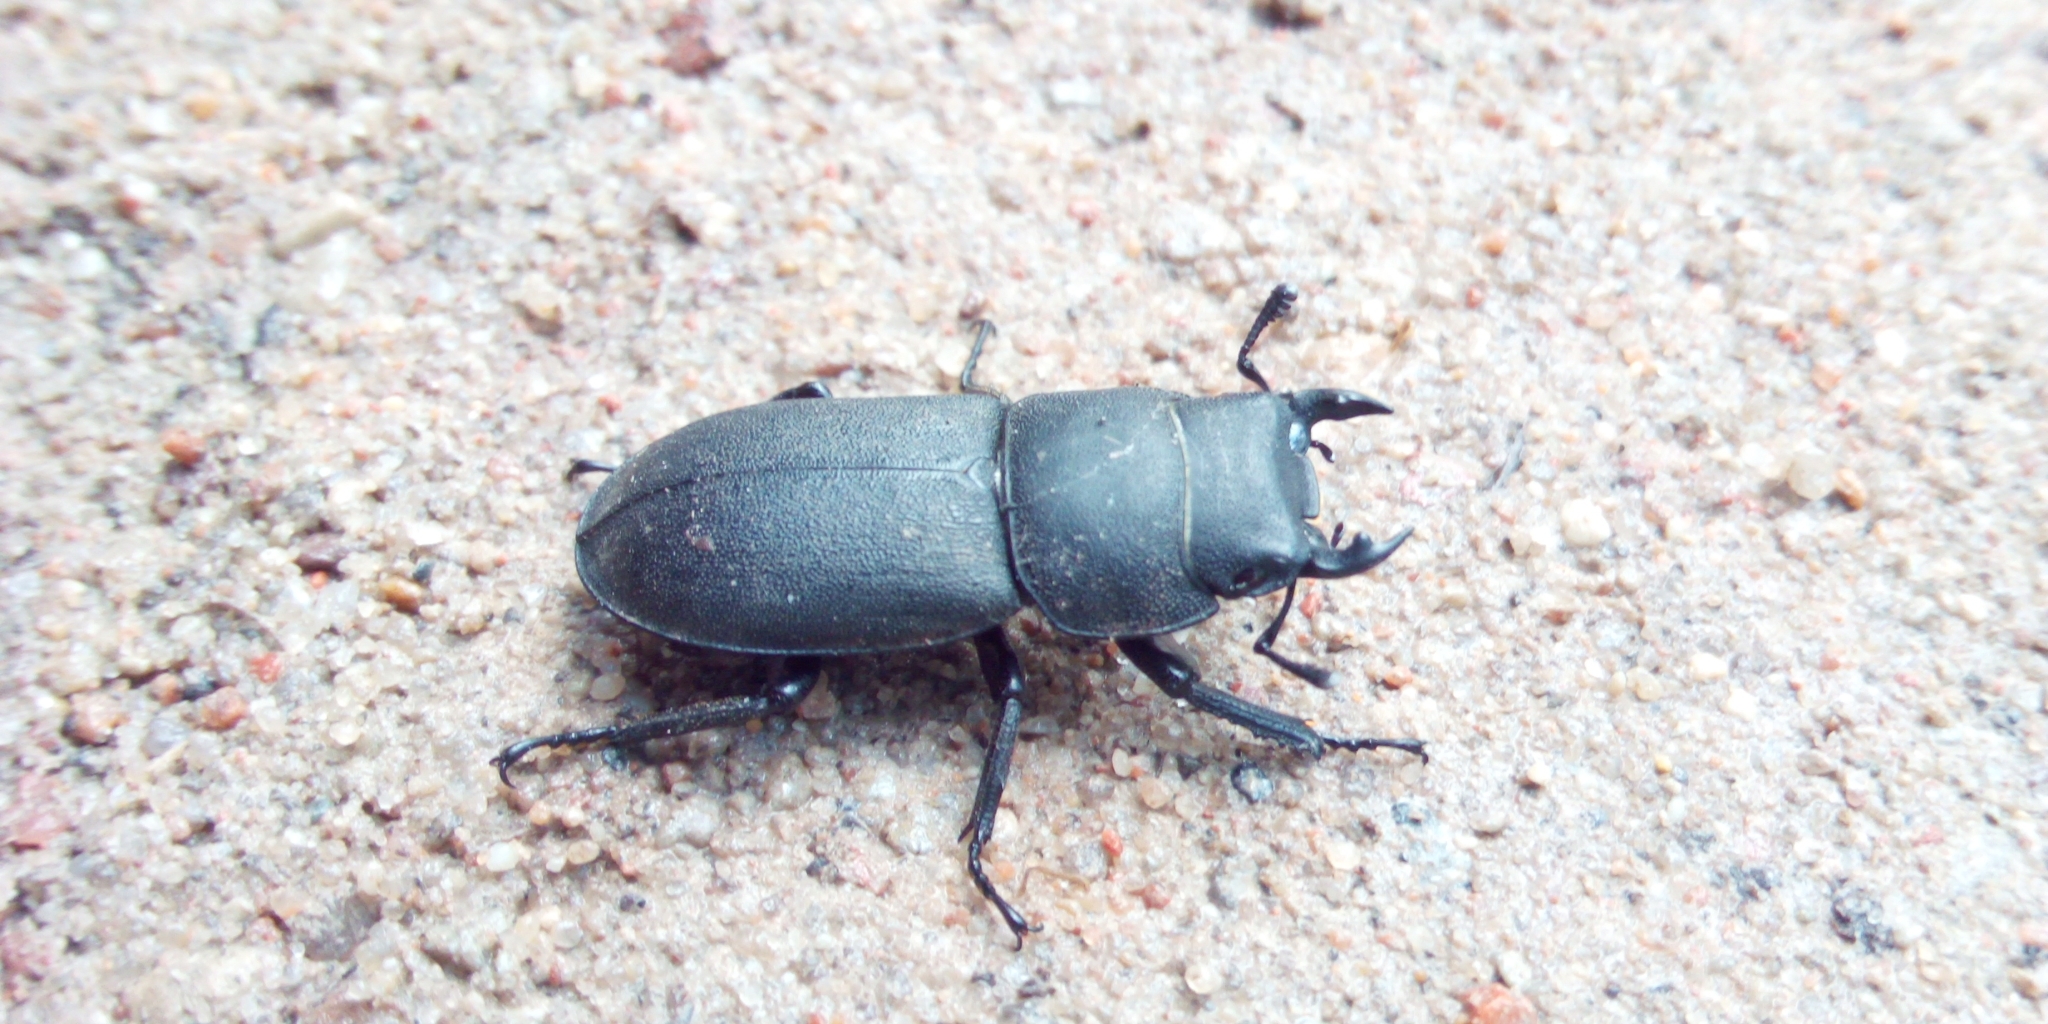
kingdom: Animalia
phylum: Arthropoda
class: Insecta
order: Coleoptera
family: Lucanidae
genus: Dorcus
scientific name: Dorcus parallelipipedus
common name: Lesser stag beetle
